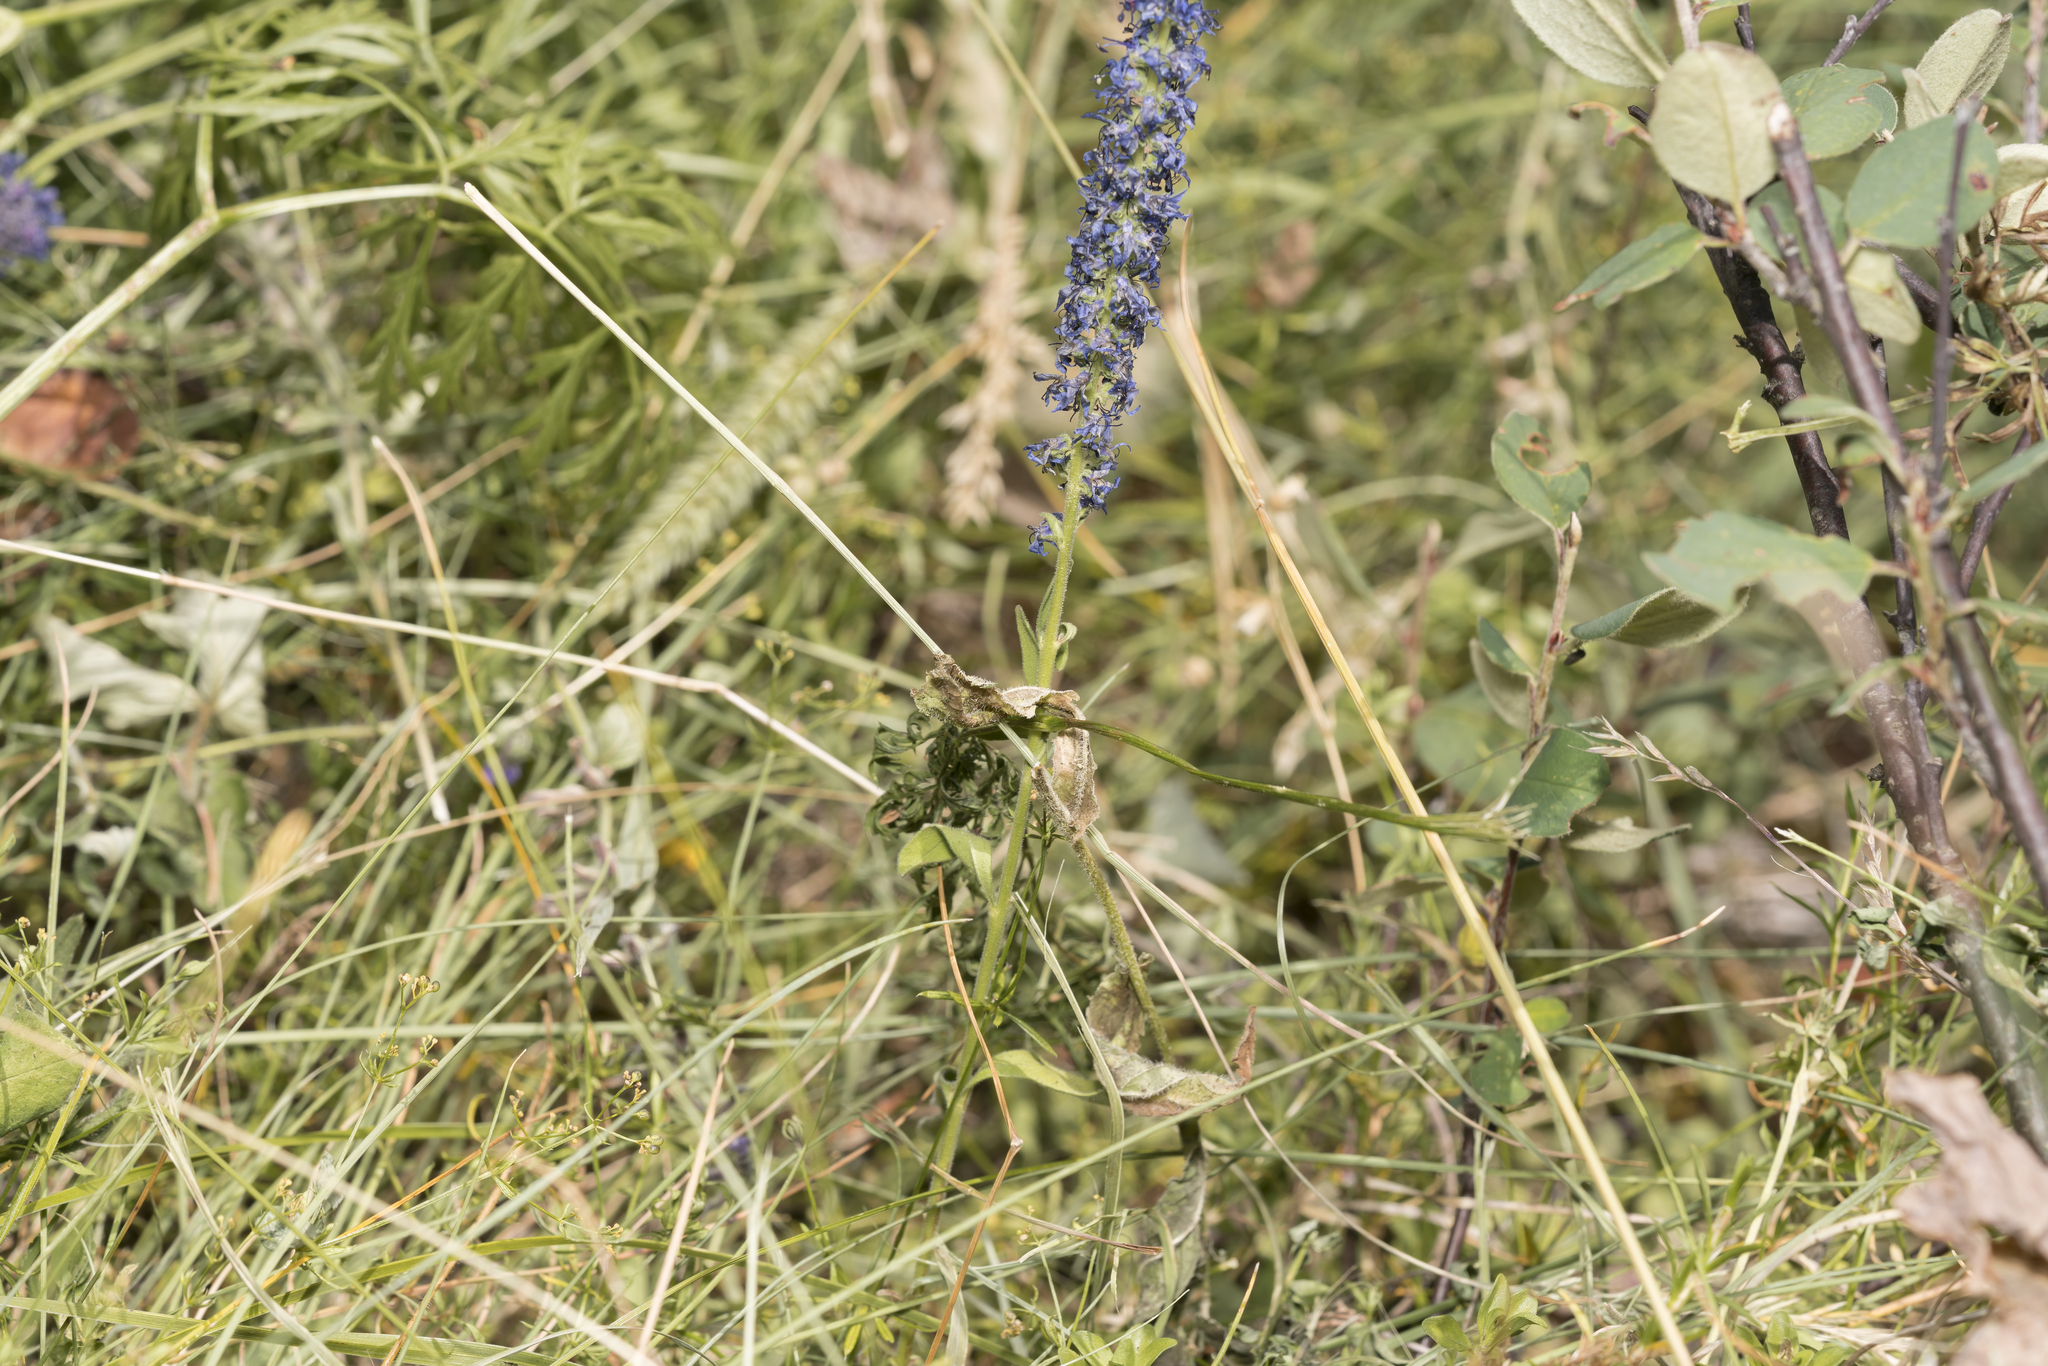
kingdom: Plantae
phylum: Tracheophyta
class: Magnoliopsida
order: Lamiales
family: Plantaginaceae
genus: Veronica
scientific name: Veronica spicata
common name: Spiked speedwell
